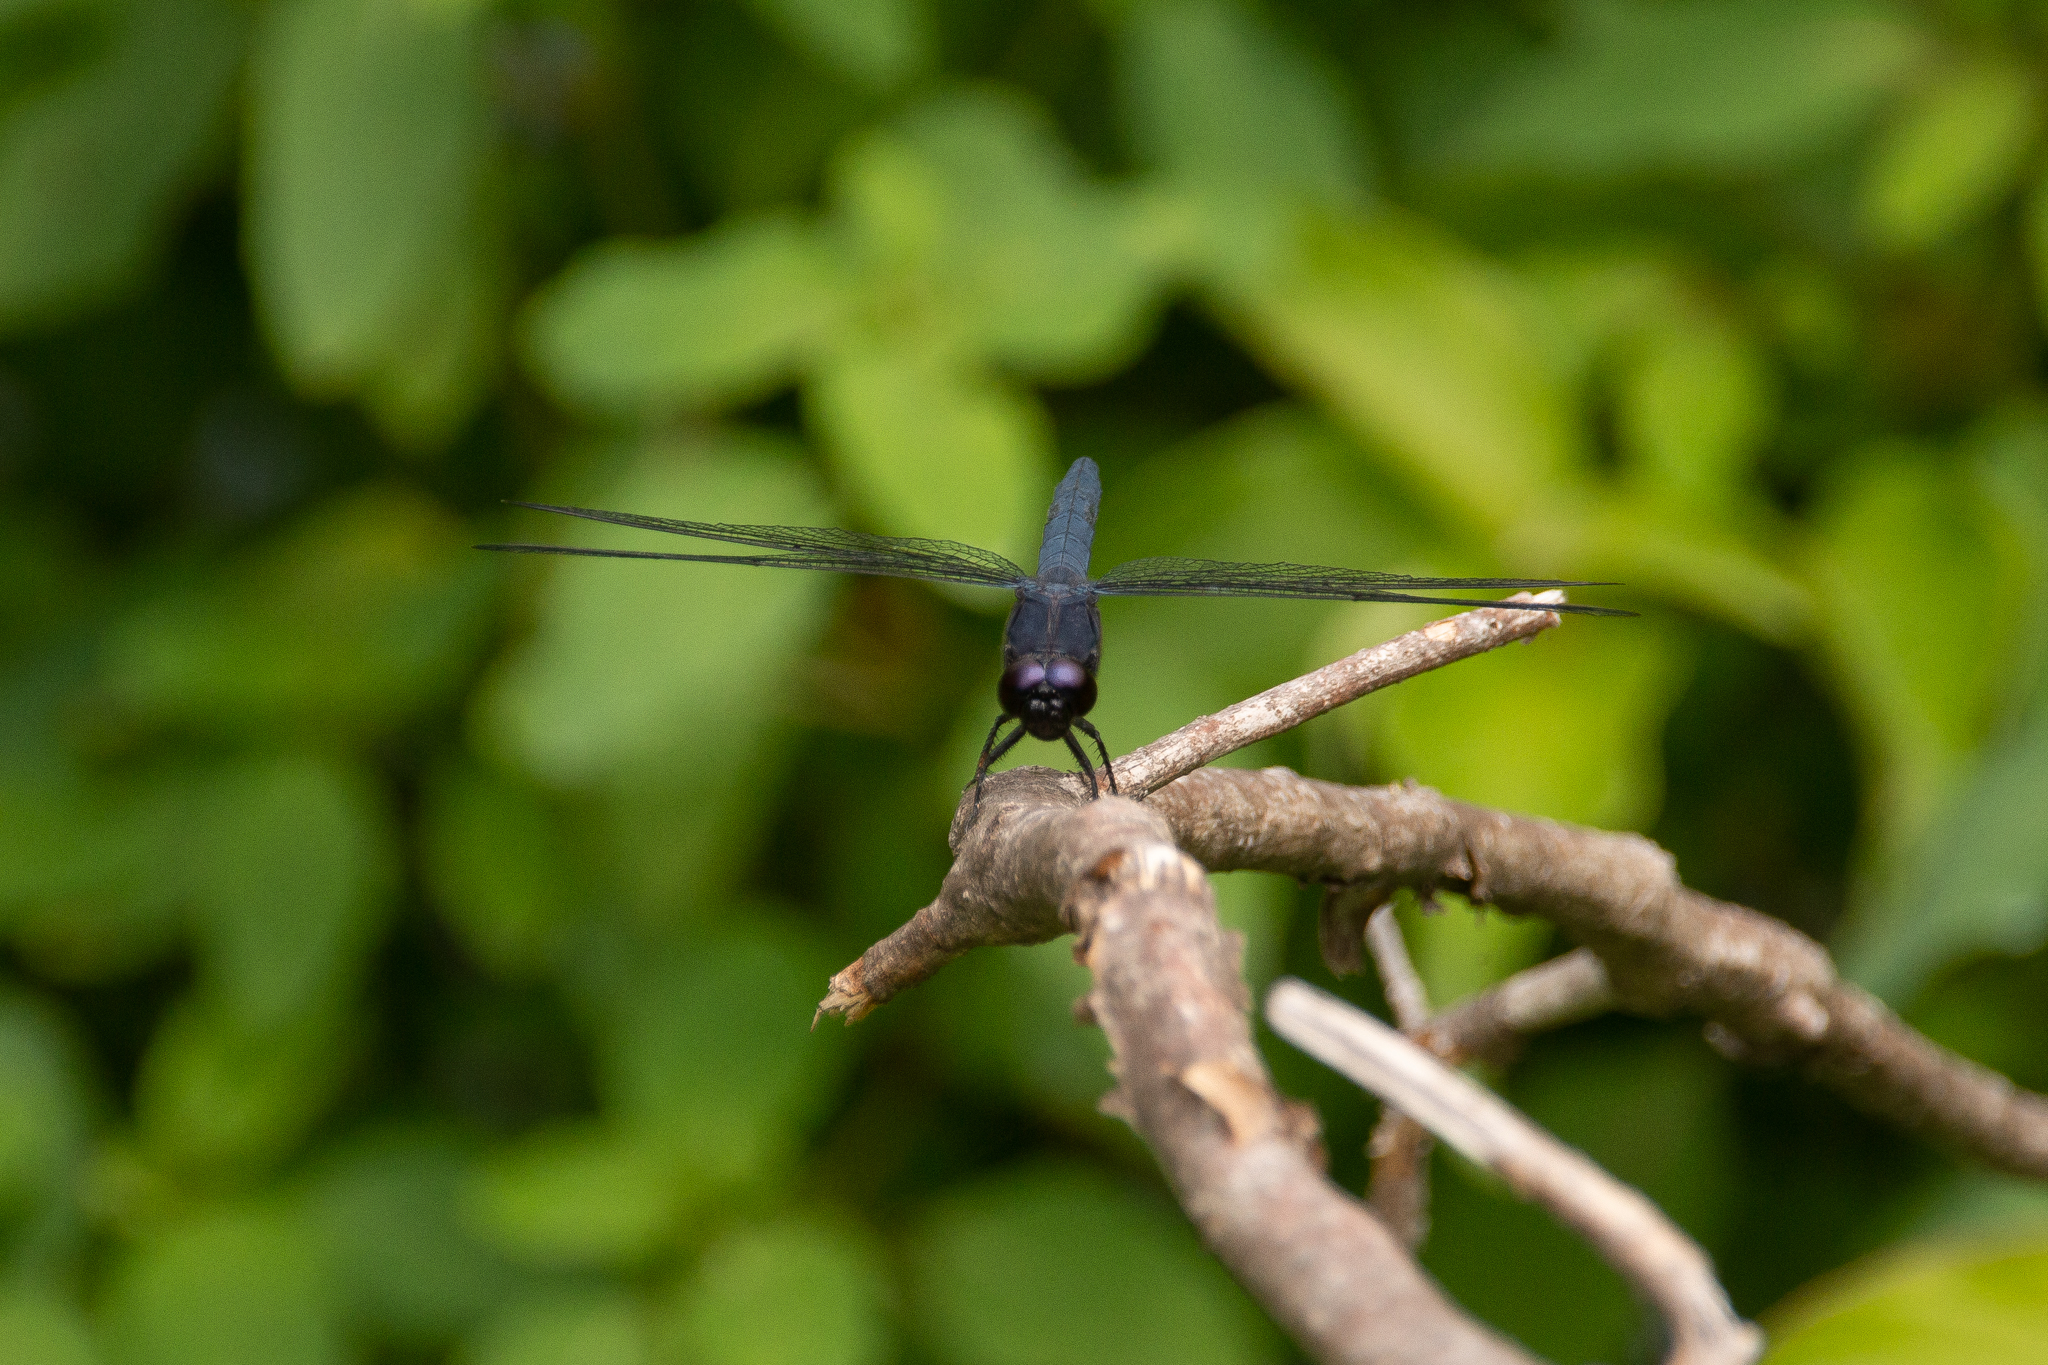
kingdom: Animalia
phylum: Arthropoda
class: Insecta
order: Odonata
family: Libellulidae
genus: Libellula
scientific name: Libellula incesta
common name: Slaty skimmer
